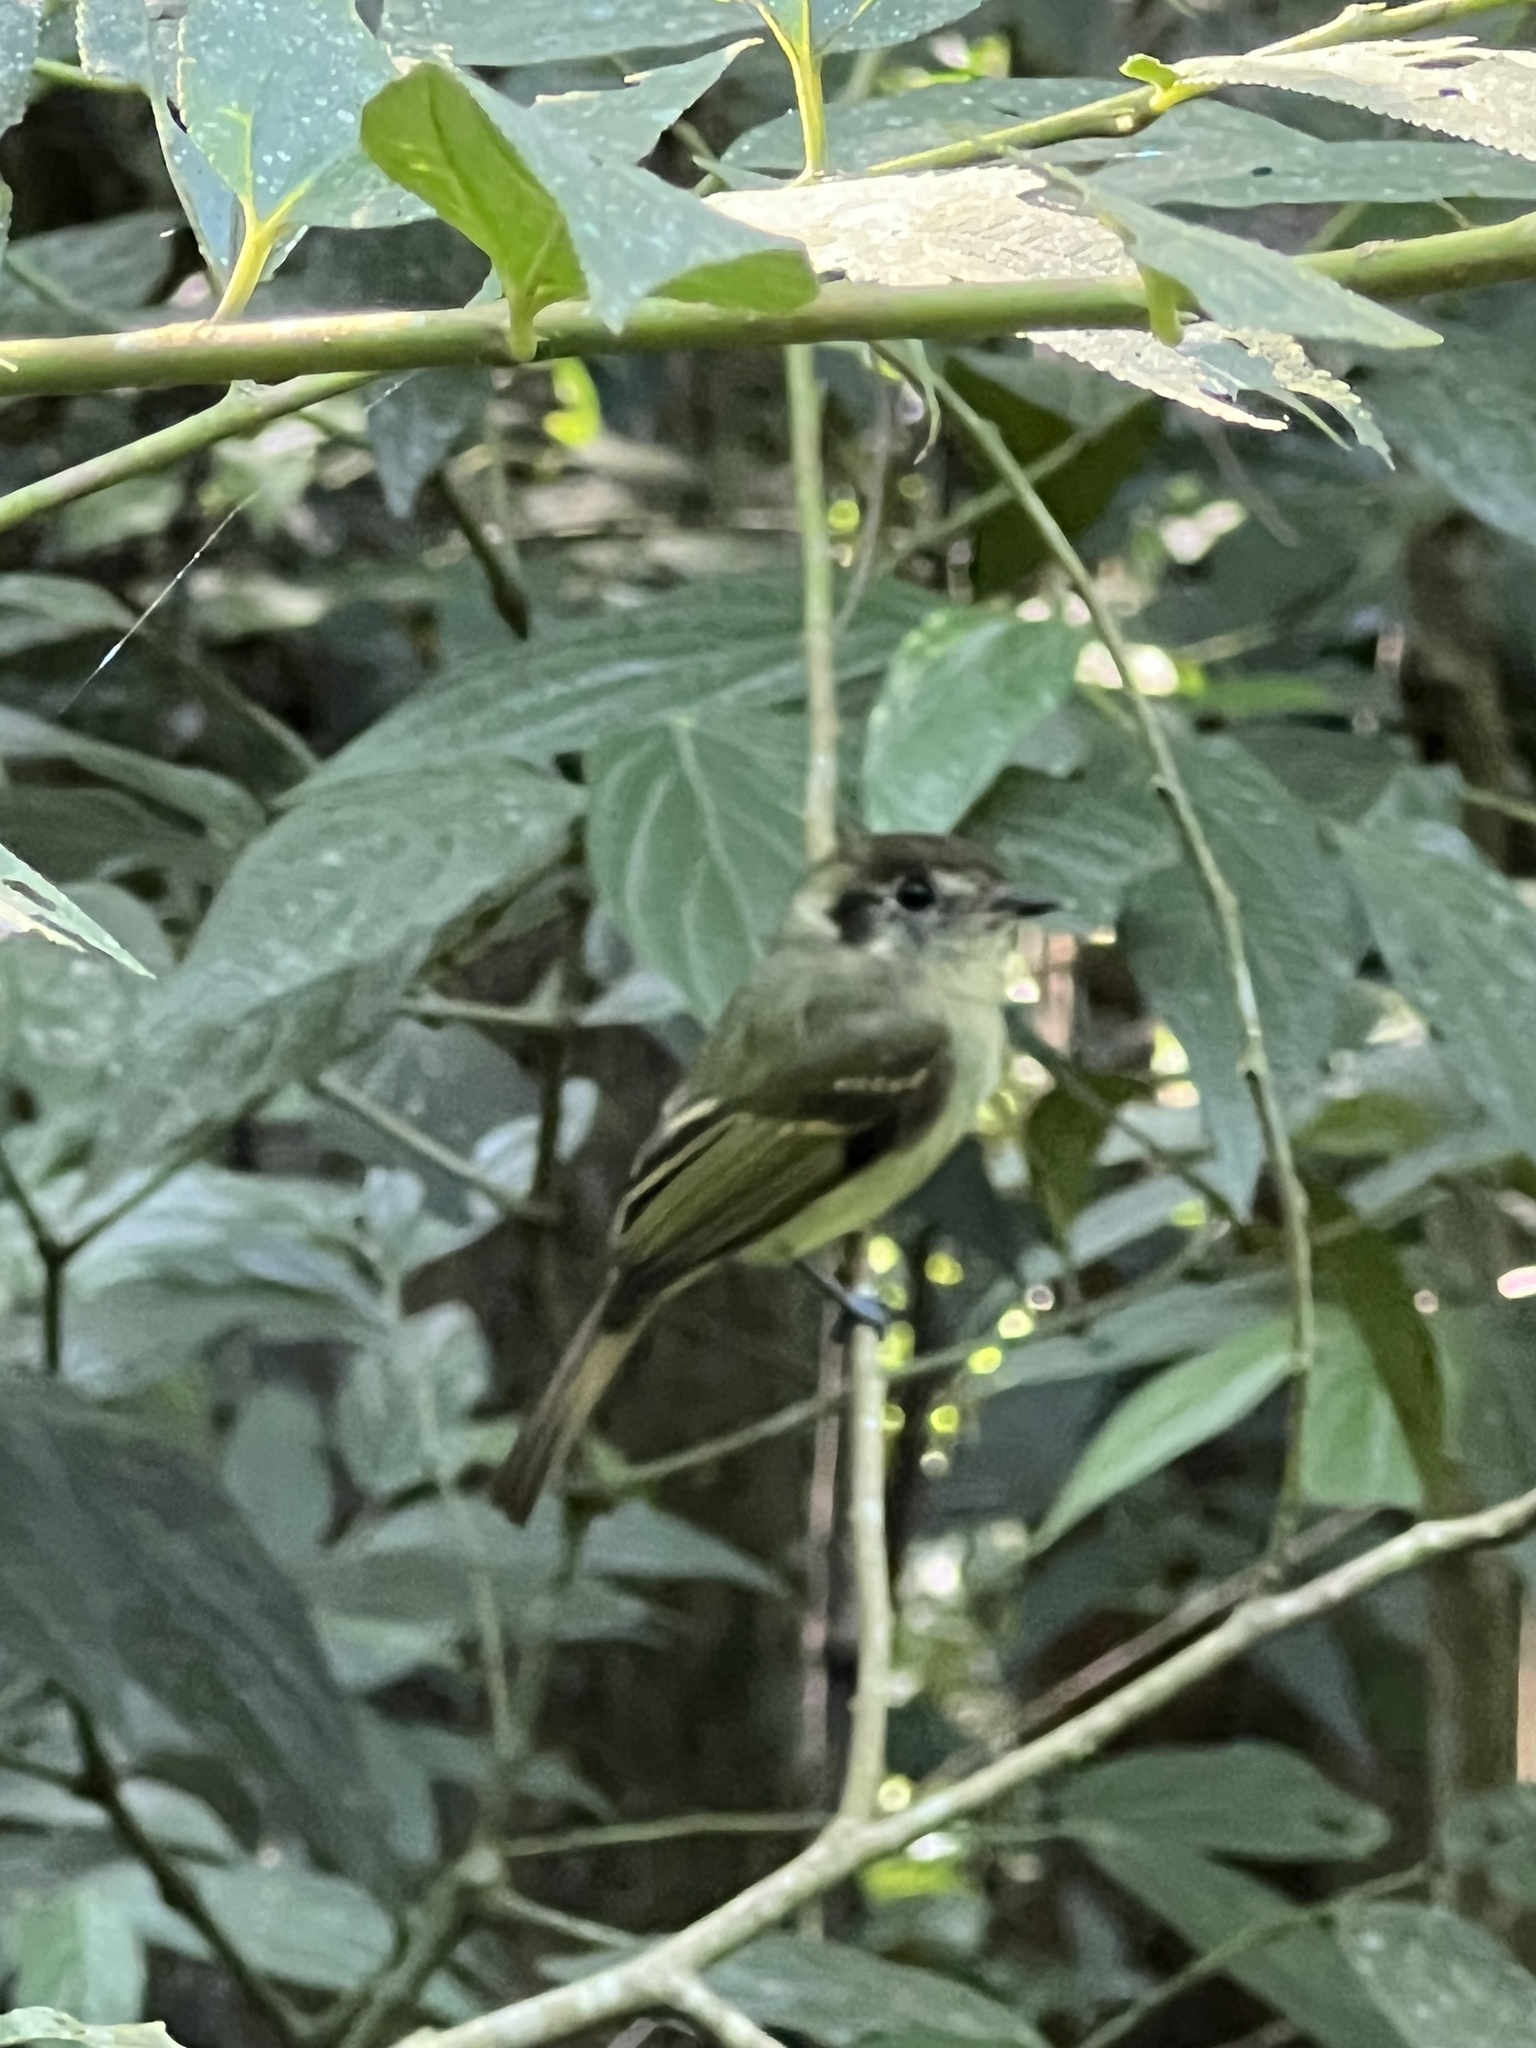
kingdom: Animalia
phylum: Chordata
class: Aves
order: Passeriformes
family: Tyrannidae
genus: Leptopogon
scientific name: Leptopogon amaurocephalus
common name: Sepia-capped flycatcher
